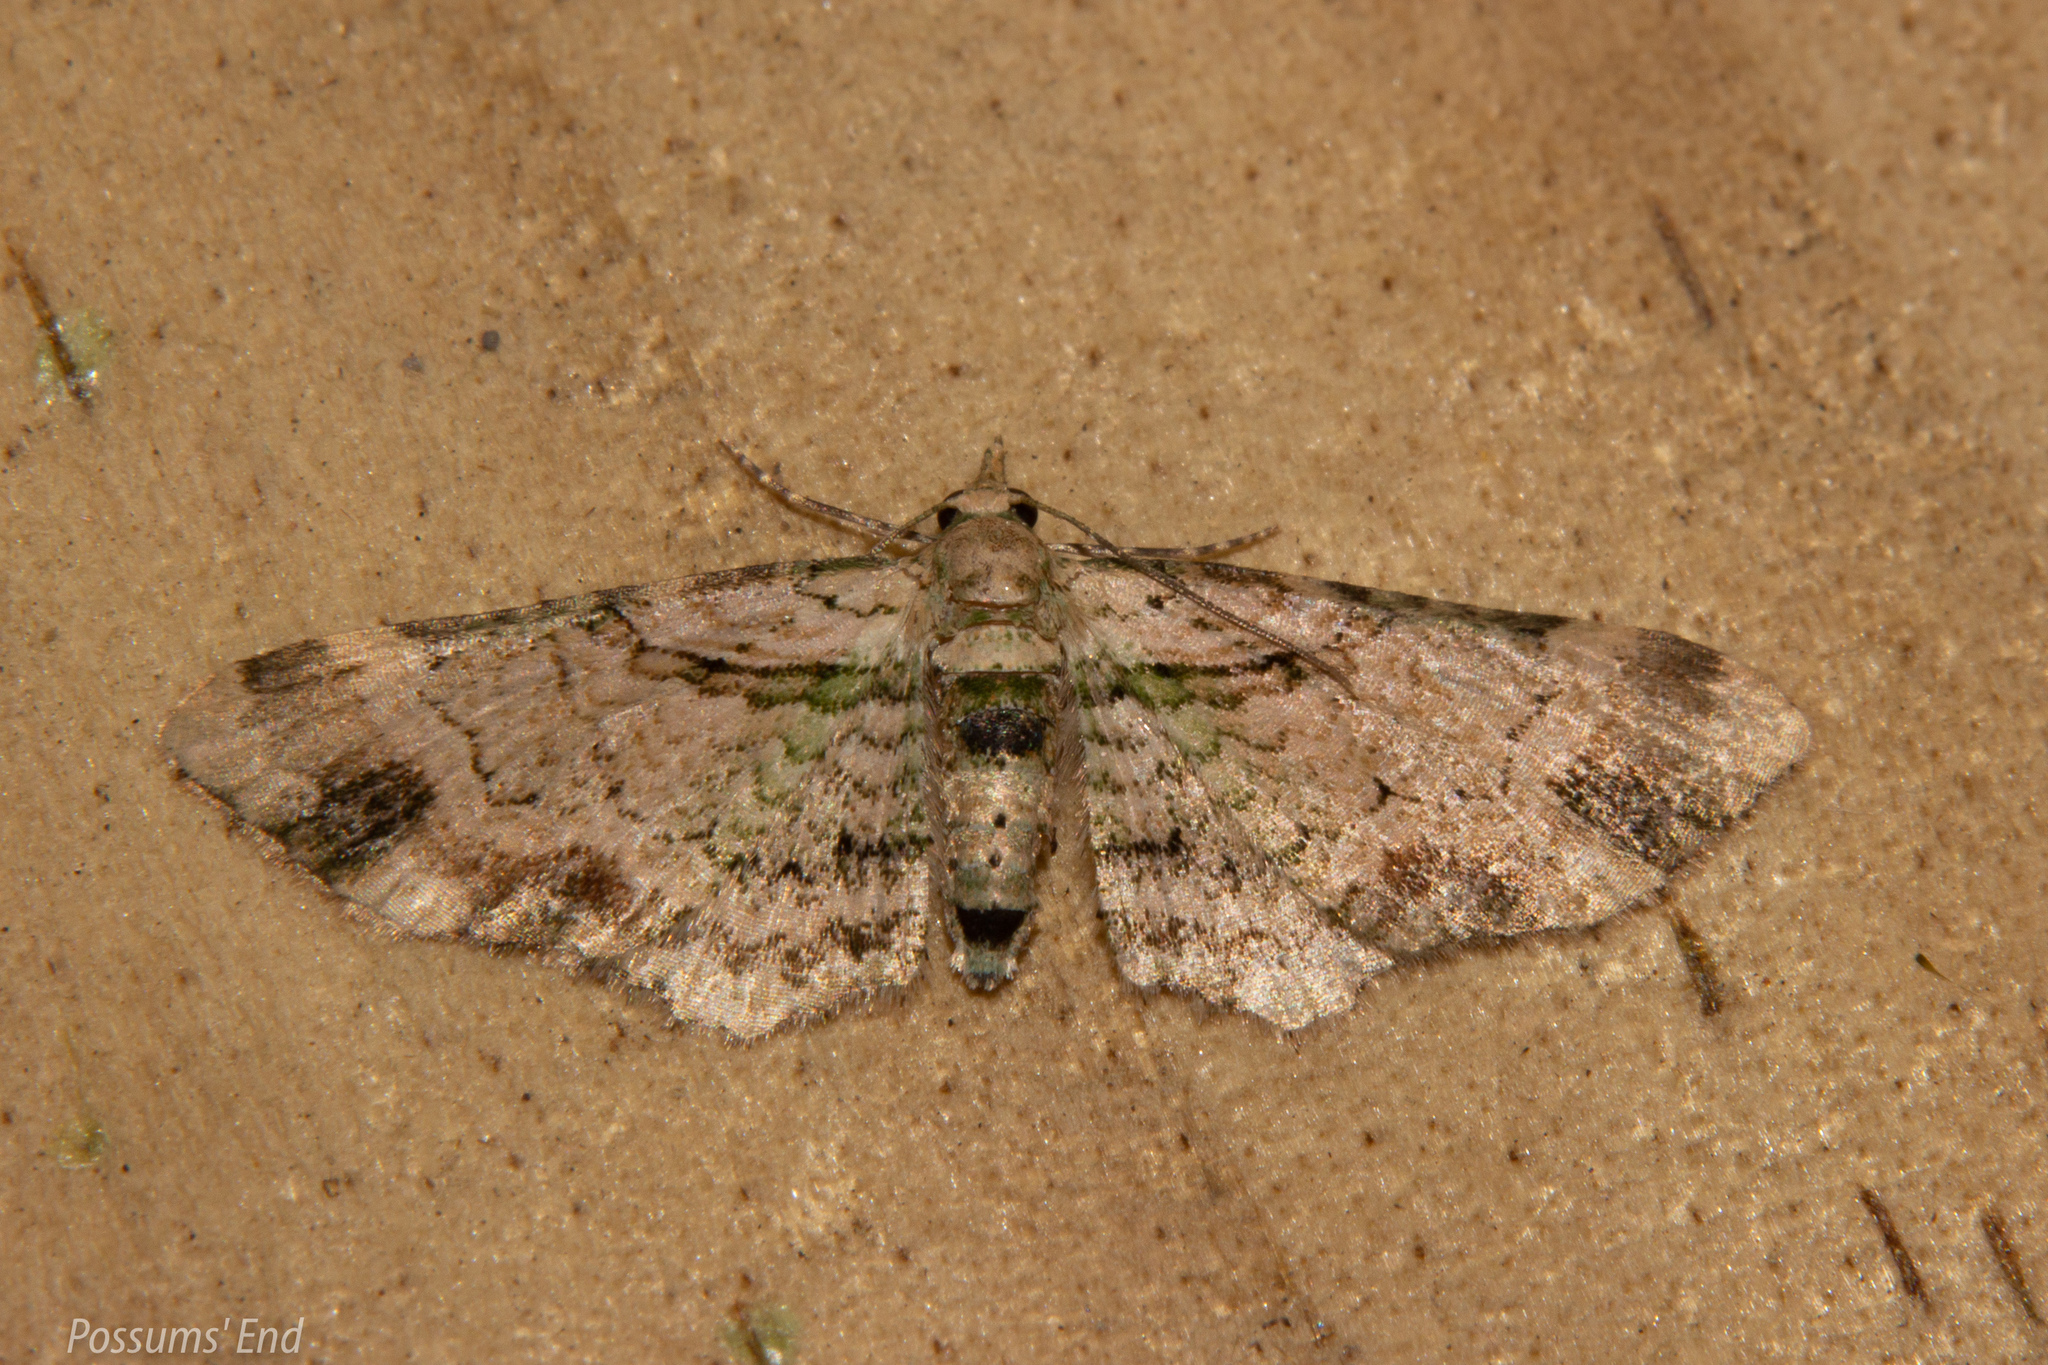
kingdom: Animalia
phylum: Arthropoda
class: Insecta
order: Lepidoptera
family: Geometridae
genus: Chloroclystis
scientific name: Chloroclystis
